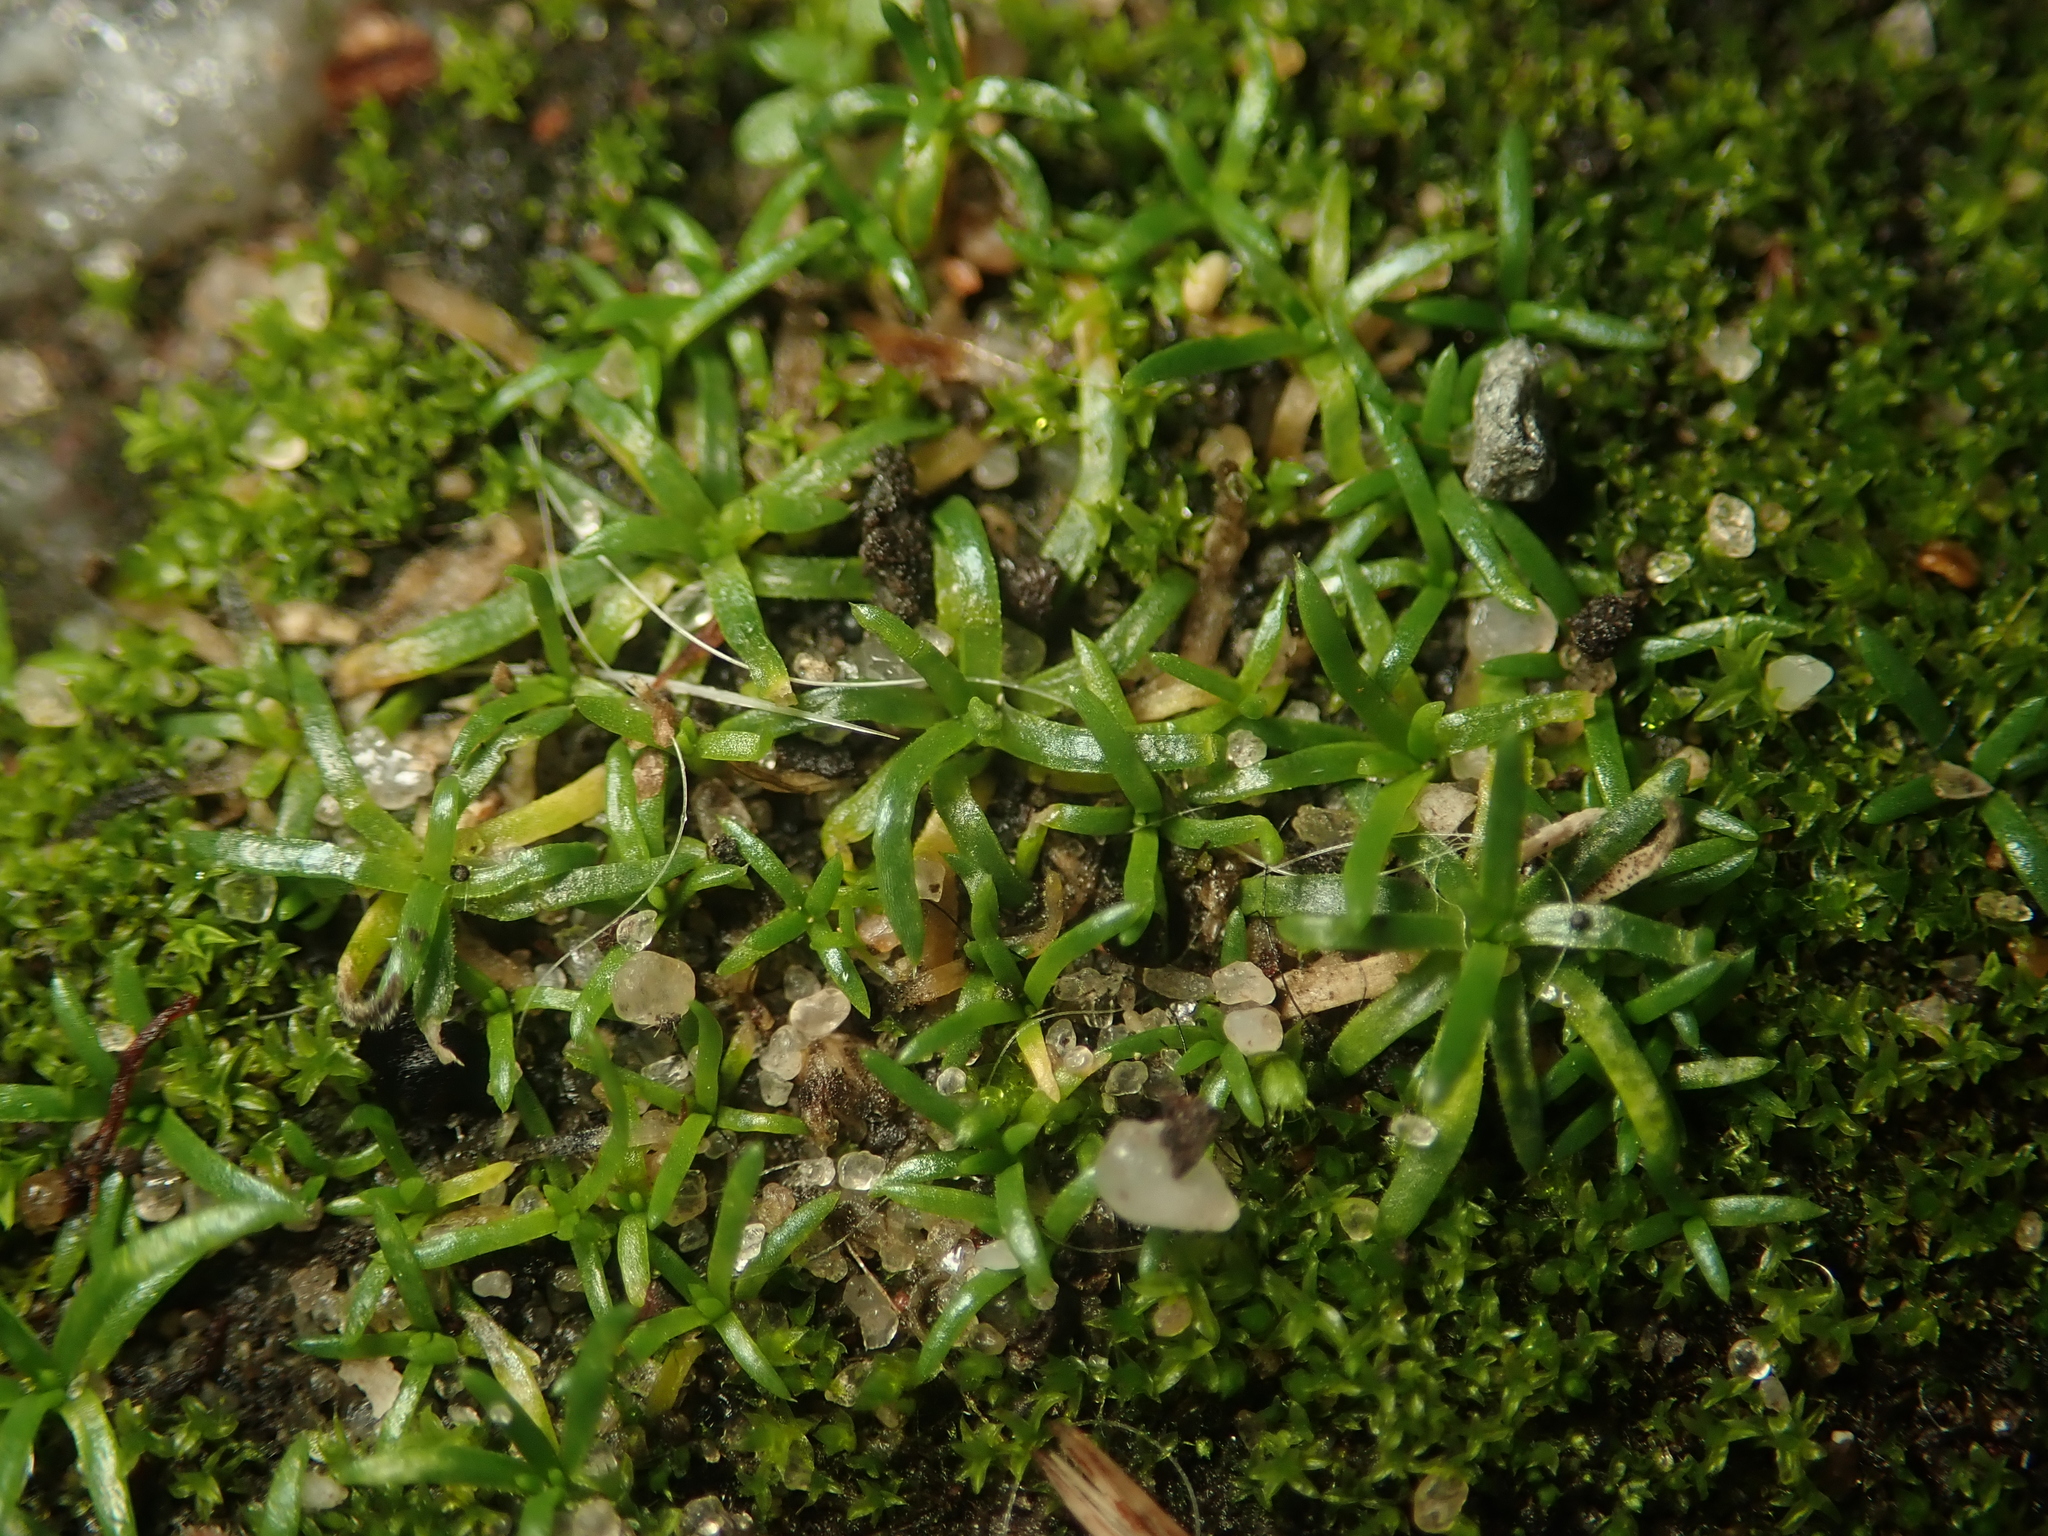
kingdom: Plantae
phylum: Tracheophyta
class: Magnoliopsida
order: Caryophyllales
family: Caryophyllaceae
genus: Sagina
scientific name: Sagina procumbens
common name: Procumbent pearlwort
